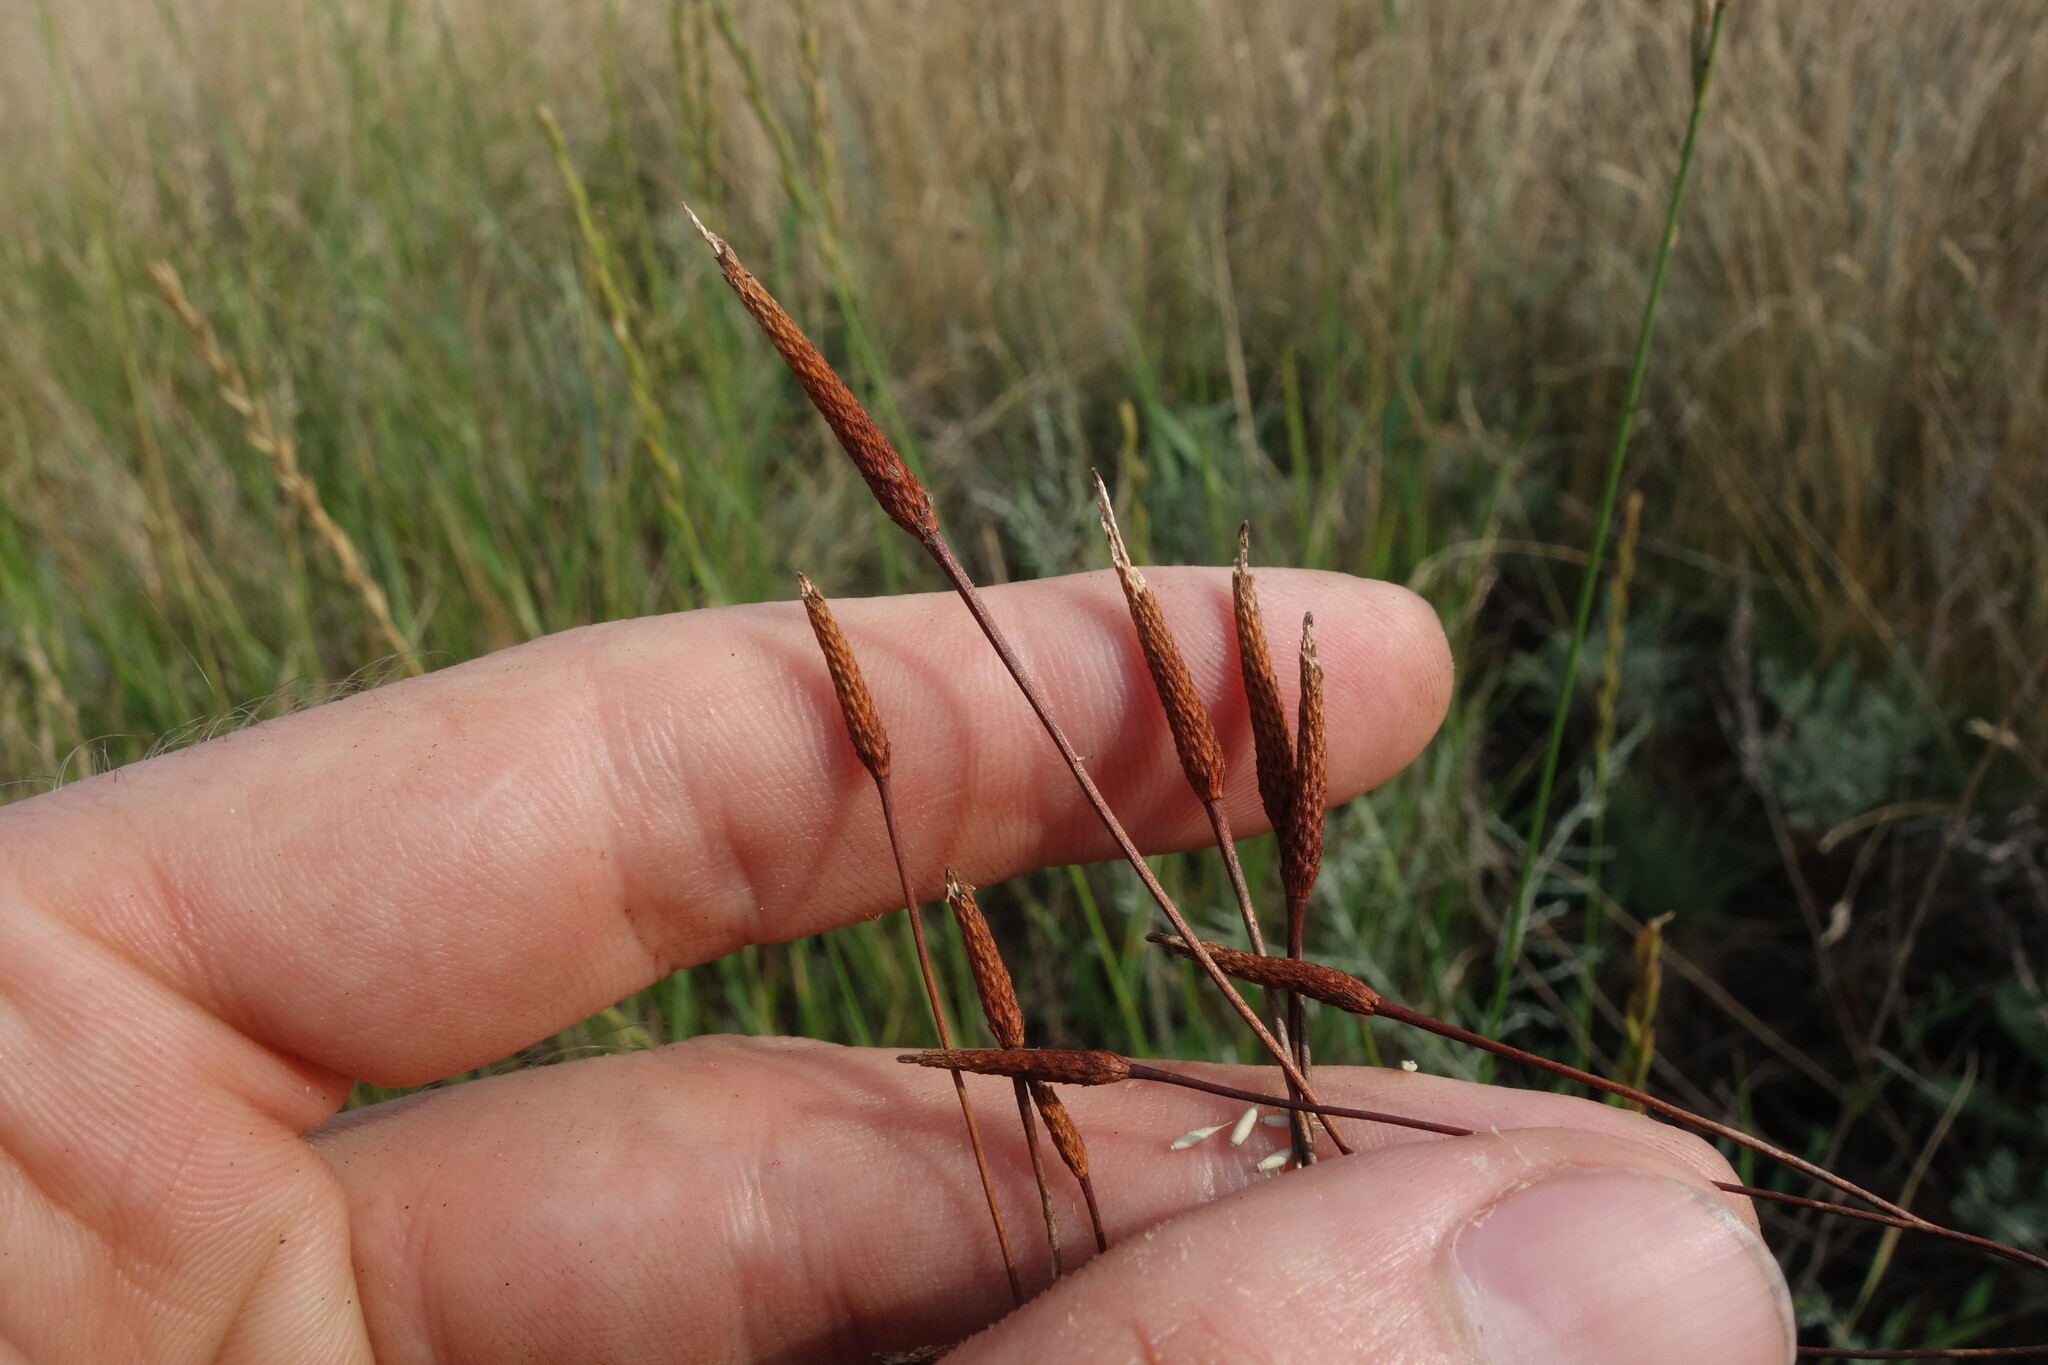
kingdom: Plantae
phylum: Tracheophyta
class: Magnoliopsida
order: Ranunculales
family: Ranunculaceae
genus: Myosurus
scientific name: Myosurus minimus
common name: Mousetail
